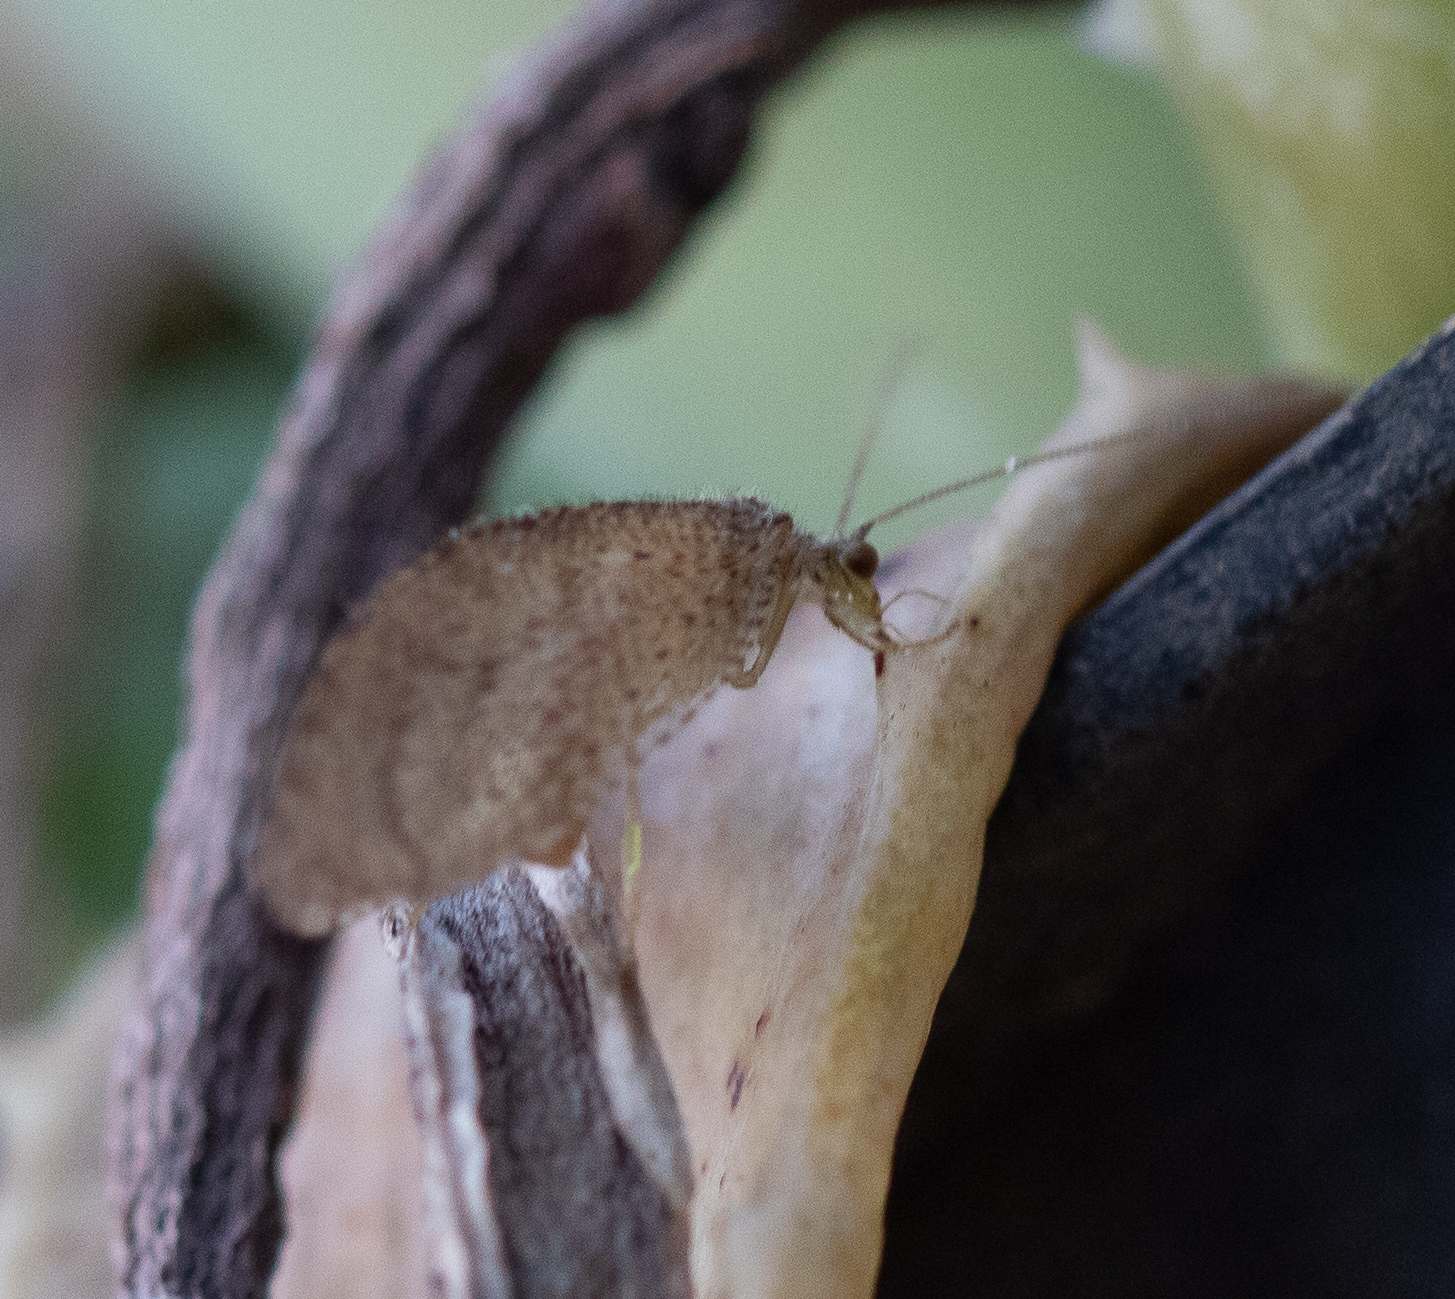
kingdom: Animalia
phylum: Arthropoda
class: Insecta
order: Neuroptera
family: Hemerobiidae
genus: Nusalala
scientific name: Nusalala tessellata
